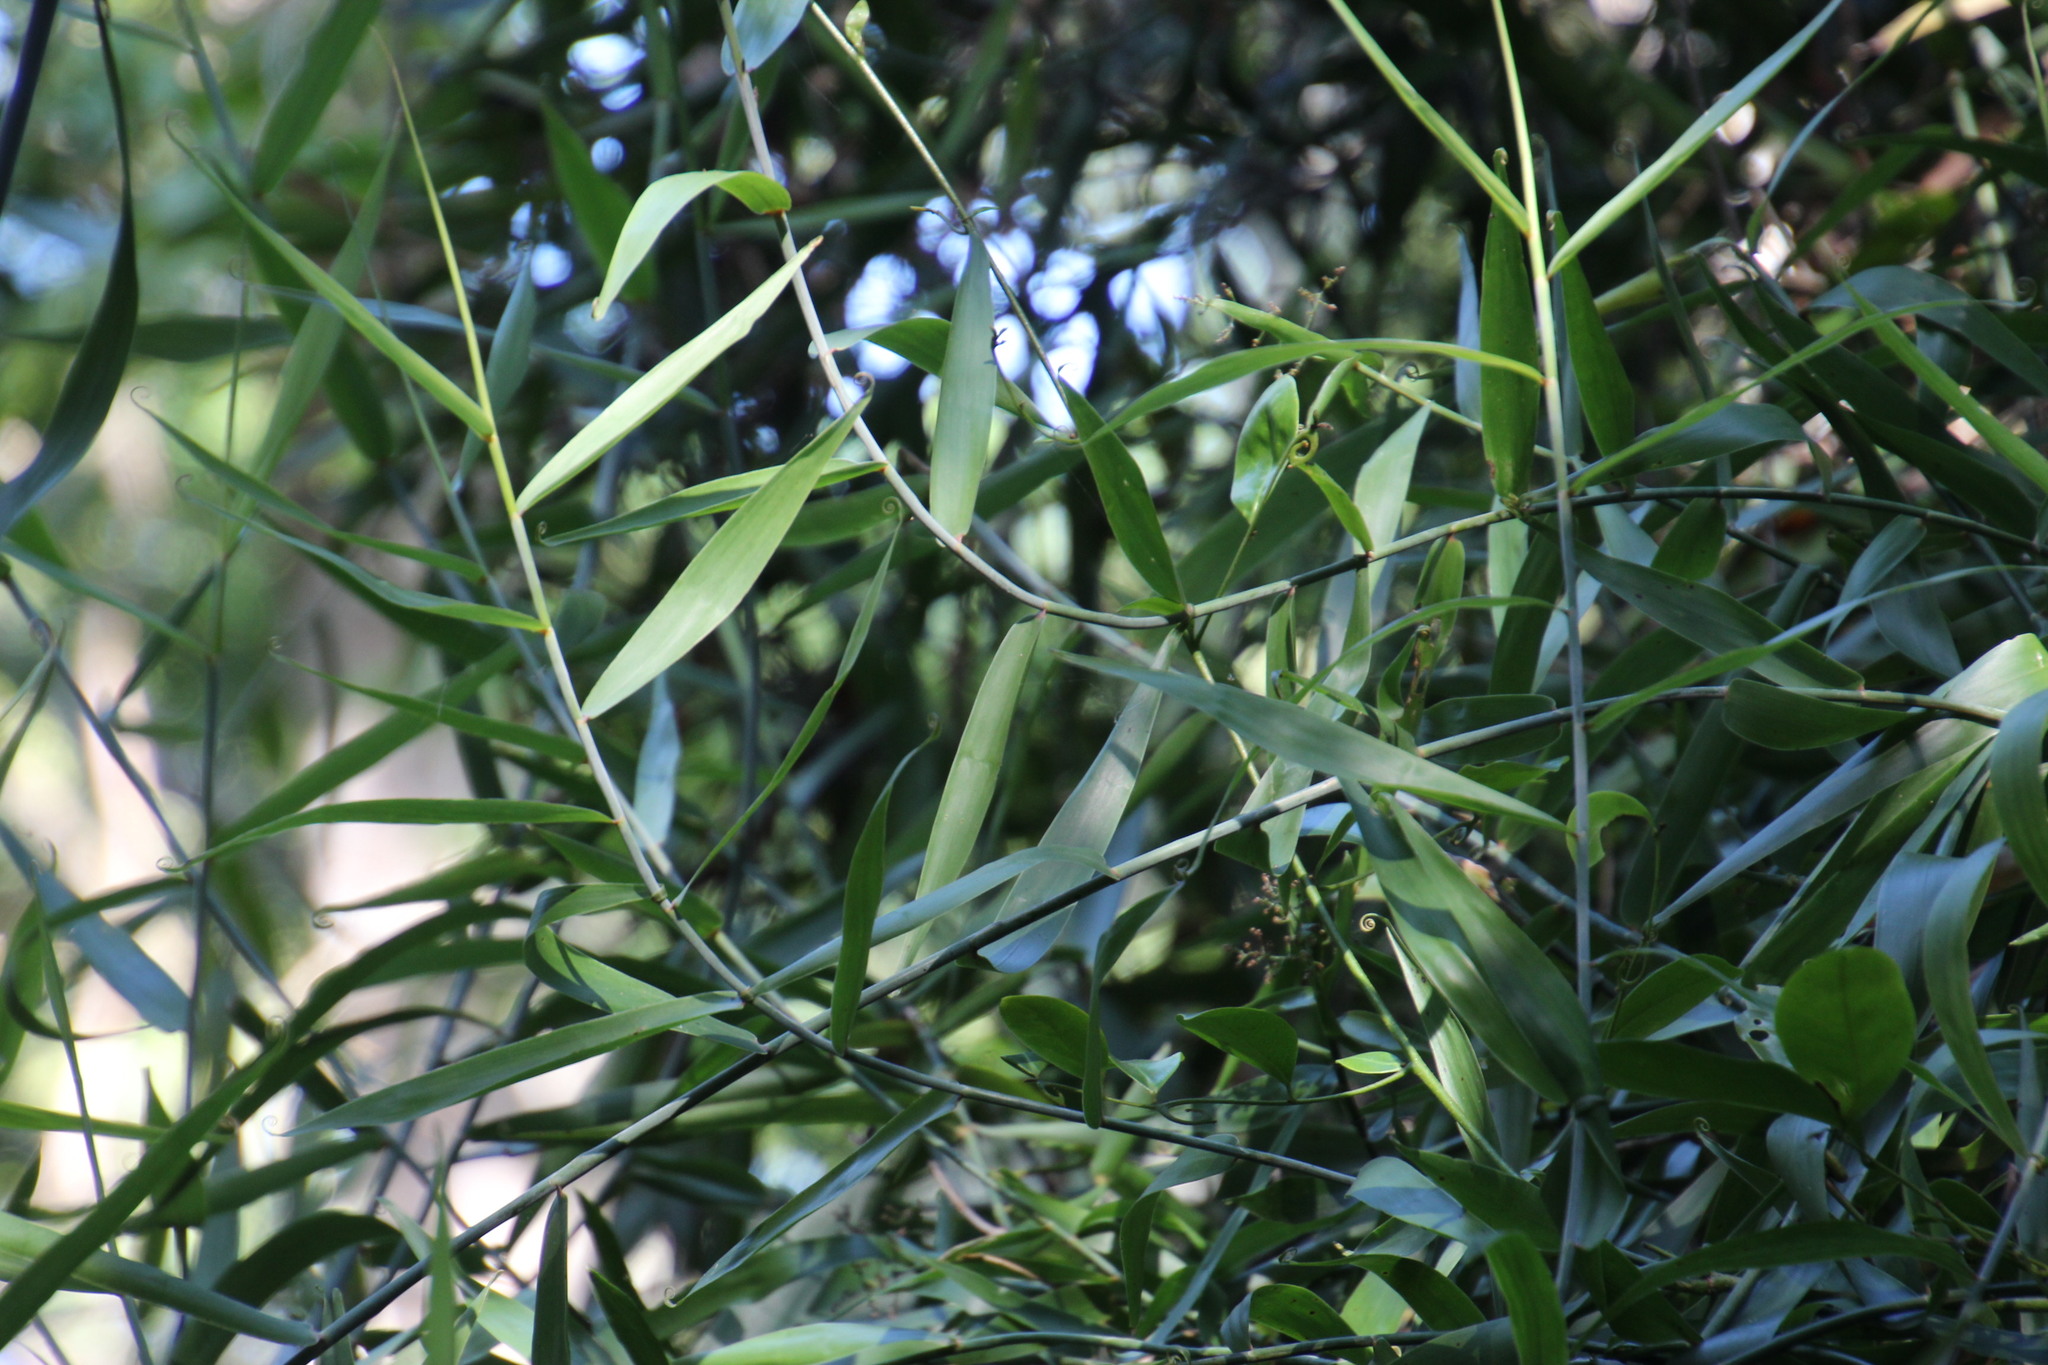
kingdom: Plantae
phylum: Tracheophyta
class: Liliopsida
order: Poales
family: Flagellariaceae
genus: Flagellaria
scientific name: Flagellaria guineensis
